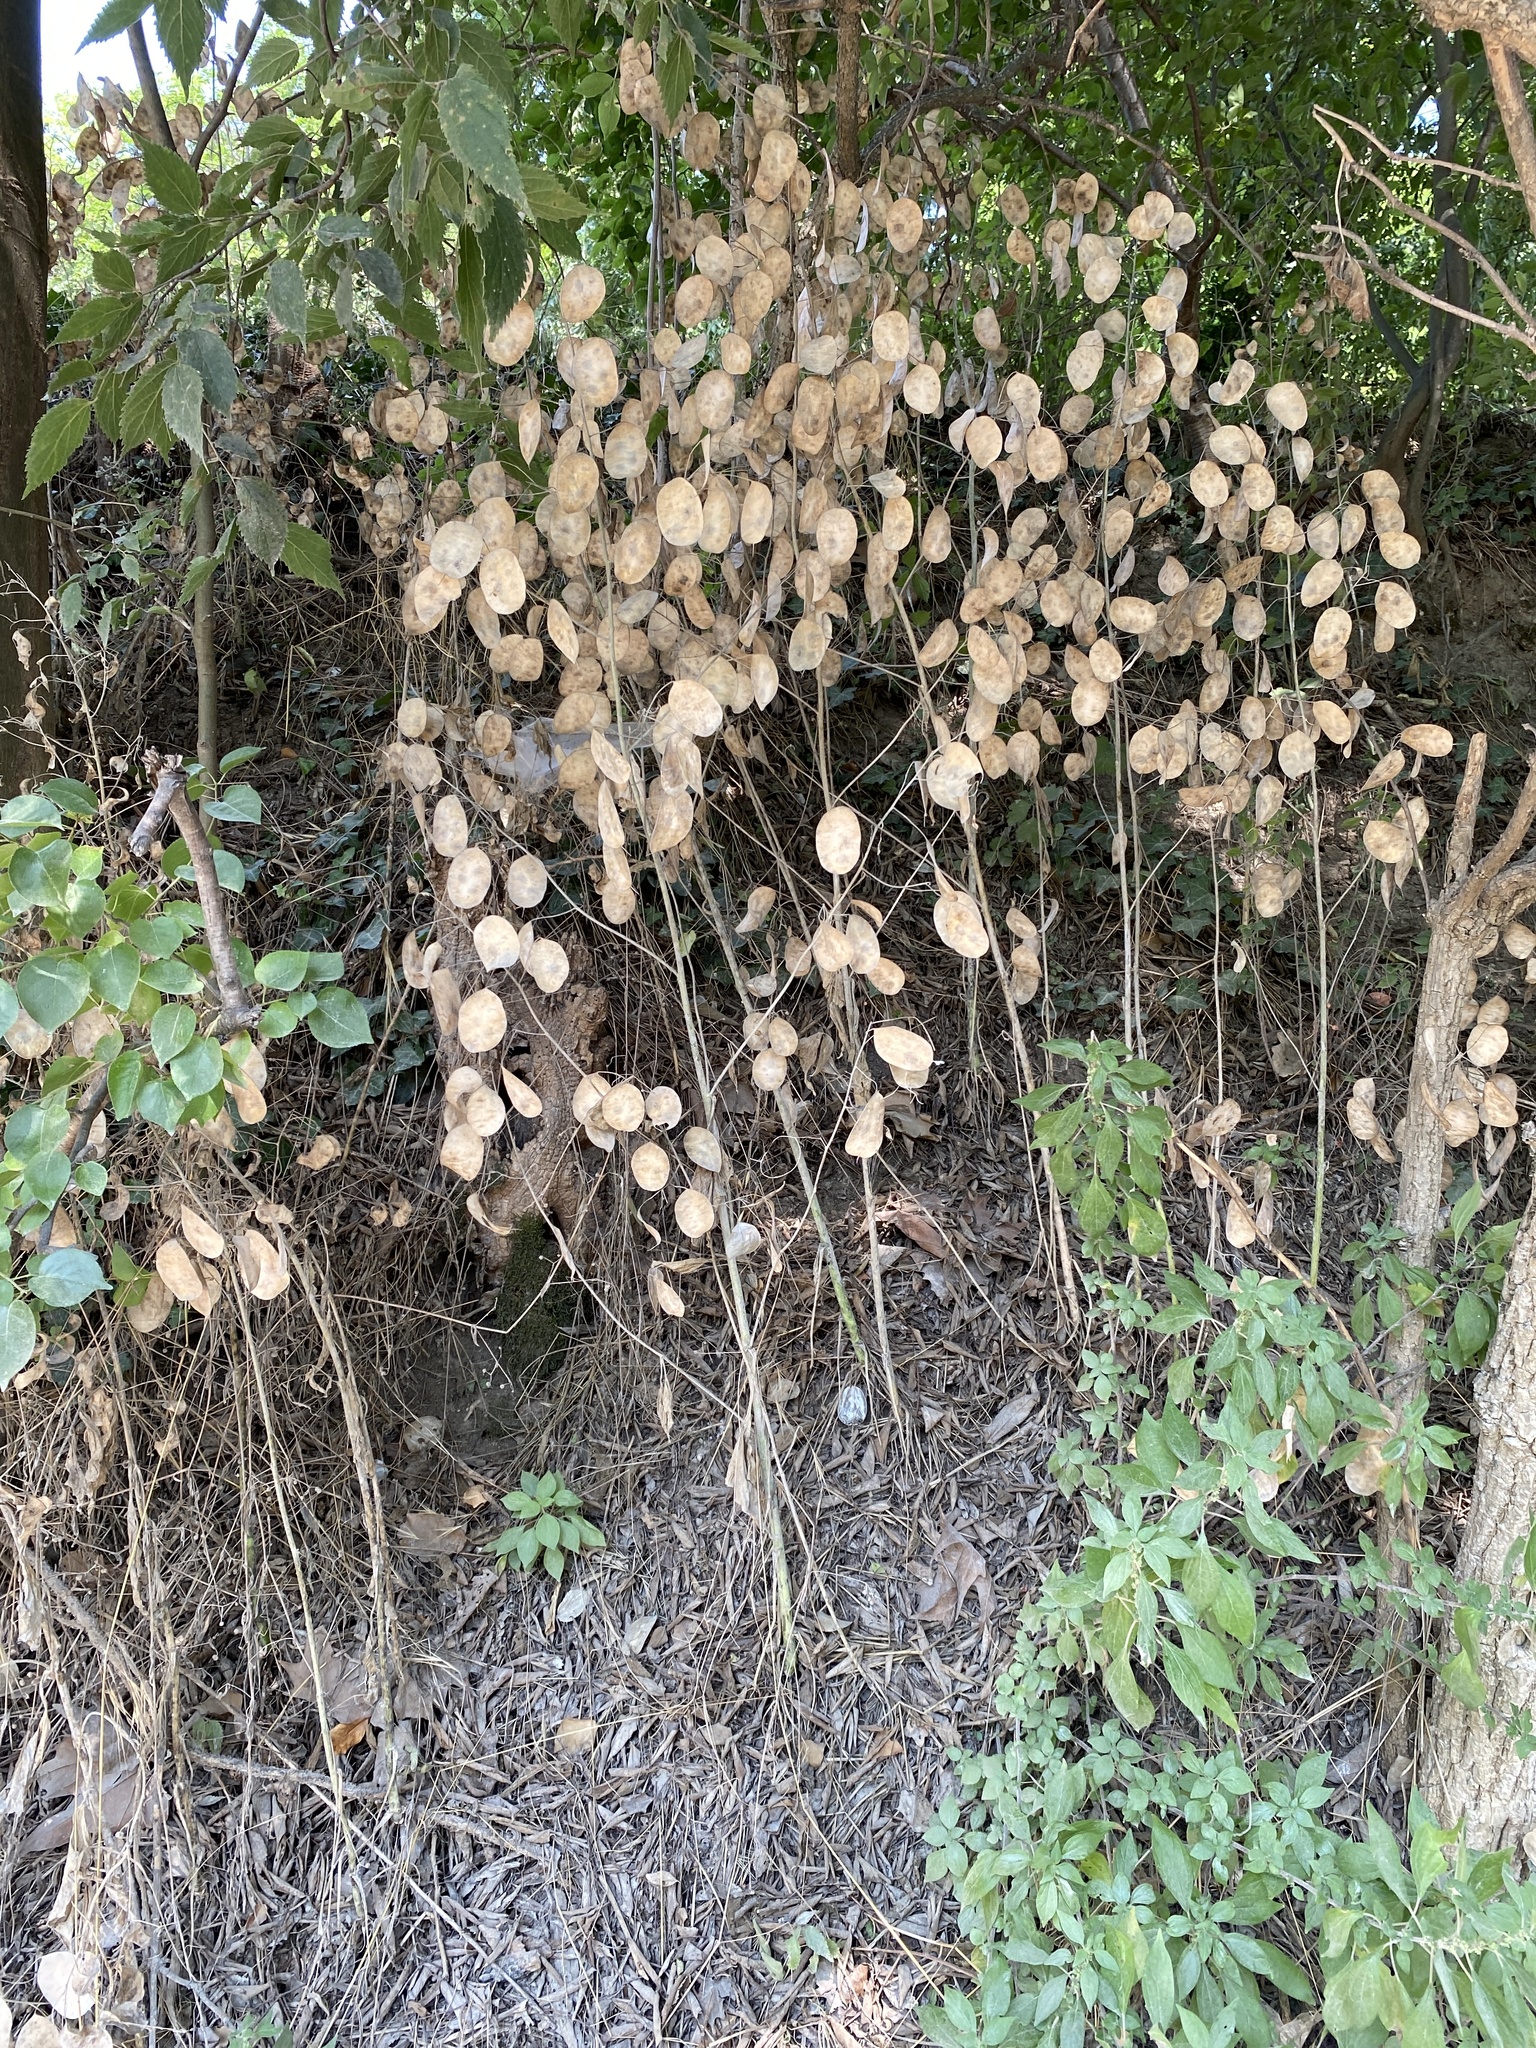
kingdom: Plantae
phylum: Tracheophyta
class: Magnoliopsida
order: Brassicales
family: Brassicaceae
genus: Lunaria
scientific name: Lunaria annua
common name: Honesty
